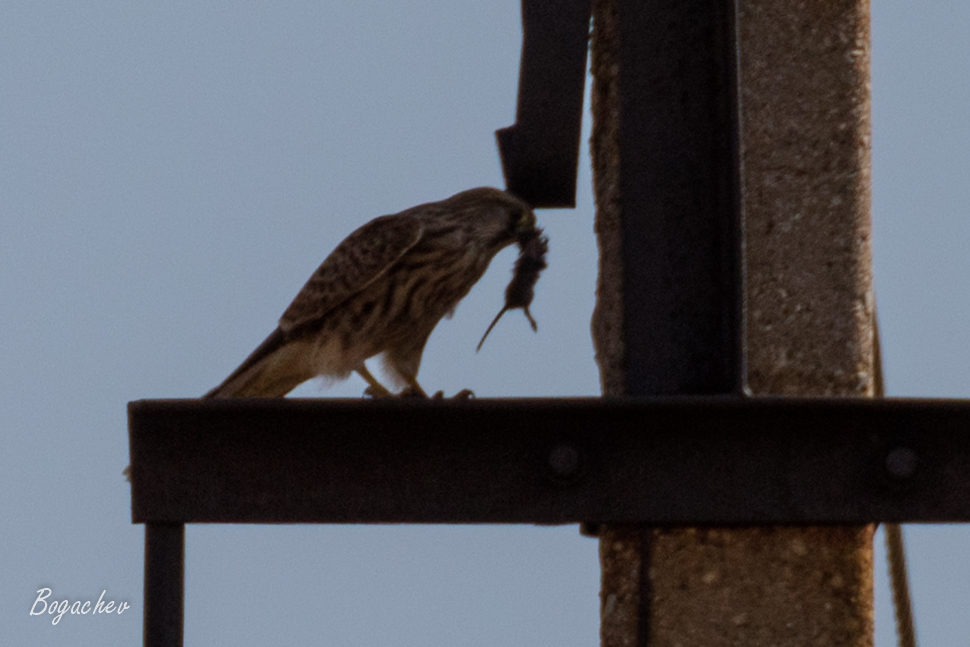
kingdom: Animalia
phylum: Chordata
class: Aves
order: Falconiformes
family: Falconidae
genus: Falco
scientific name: Falco tinnunculus
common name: Common kestrel
